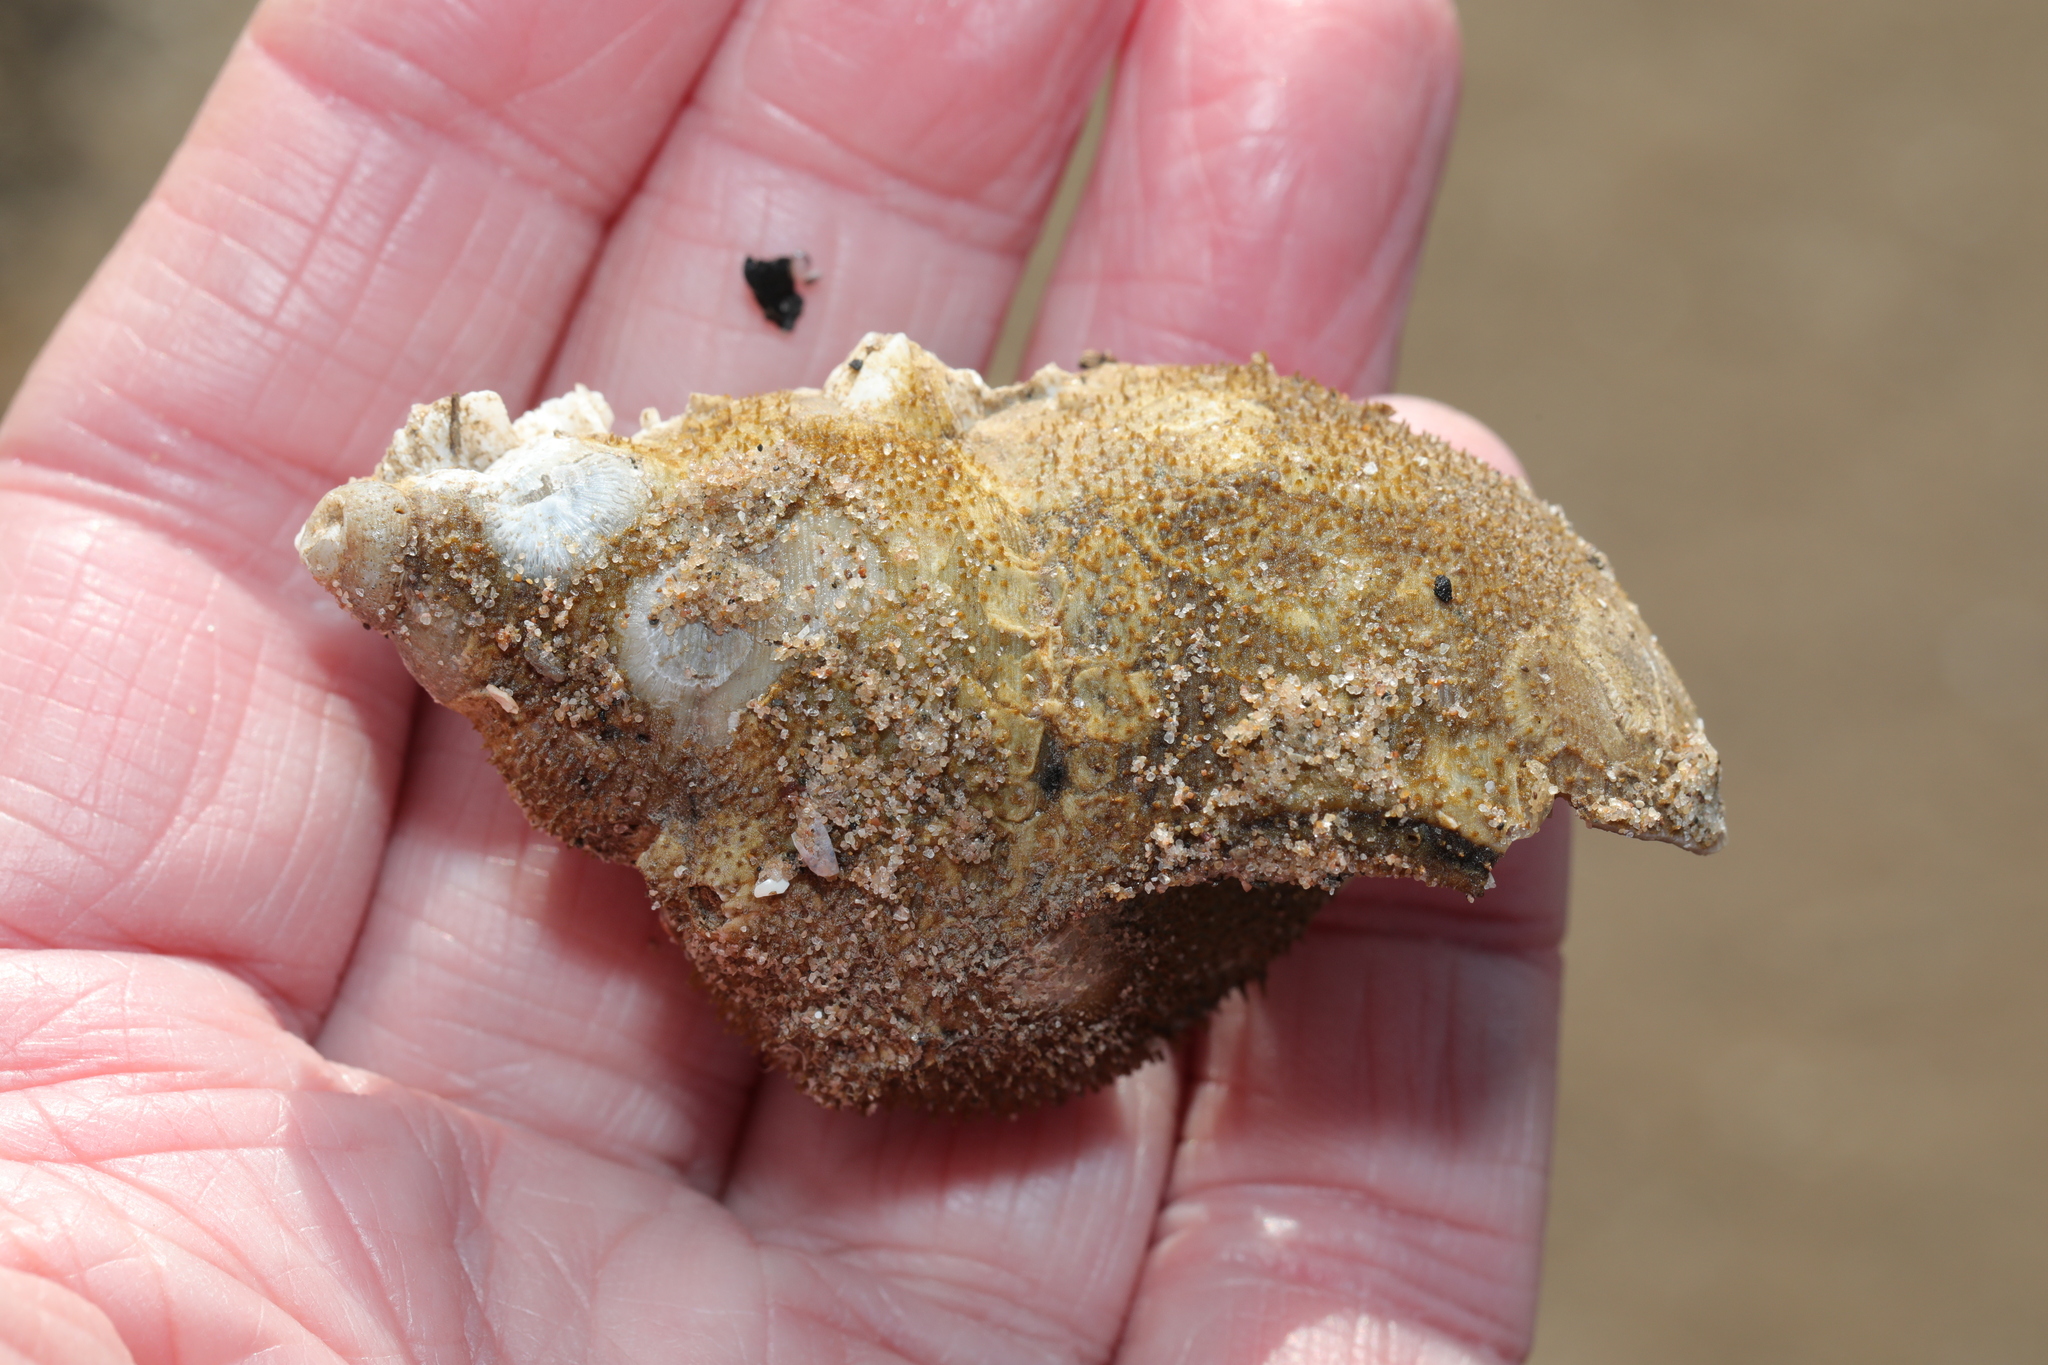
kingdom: Animalia
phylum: Cnidaria
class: Hydrozoa
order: Anthoathecata
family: Hydractiniidae
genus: Hydractinia
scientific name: Hydractinia echinata
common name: Rough hydroid
